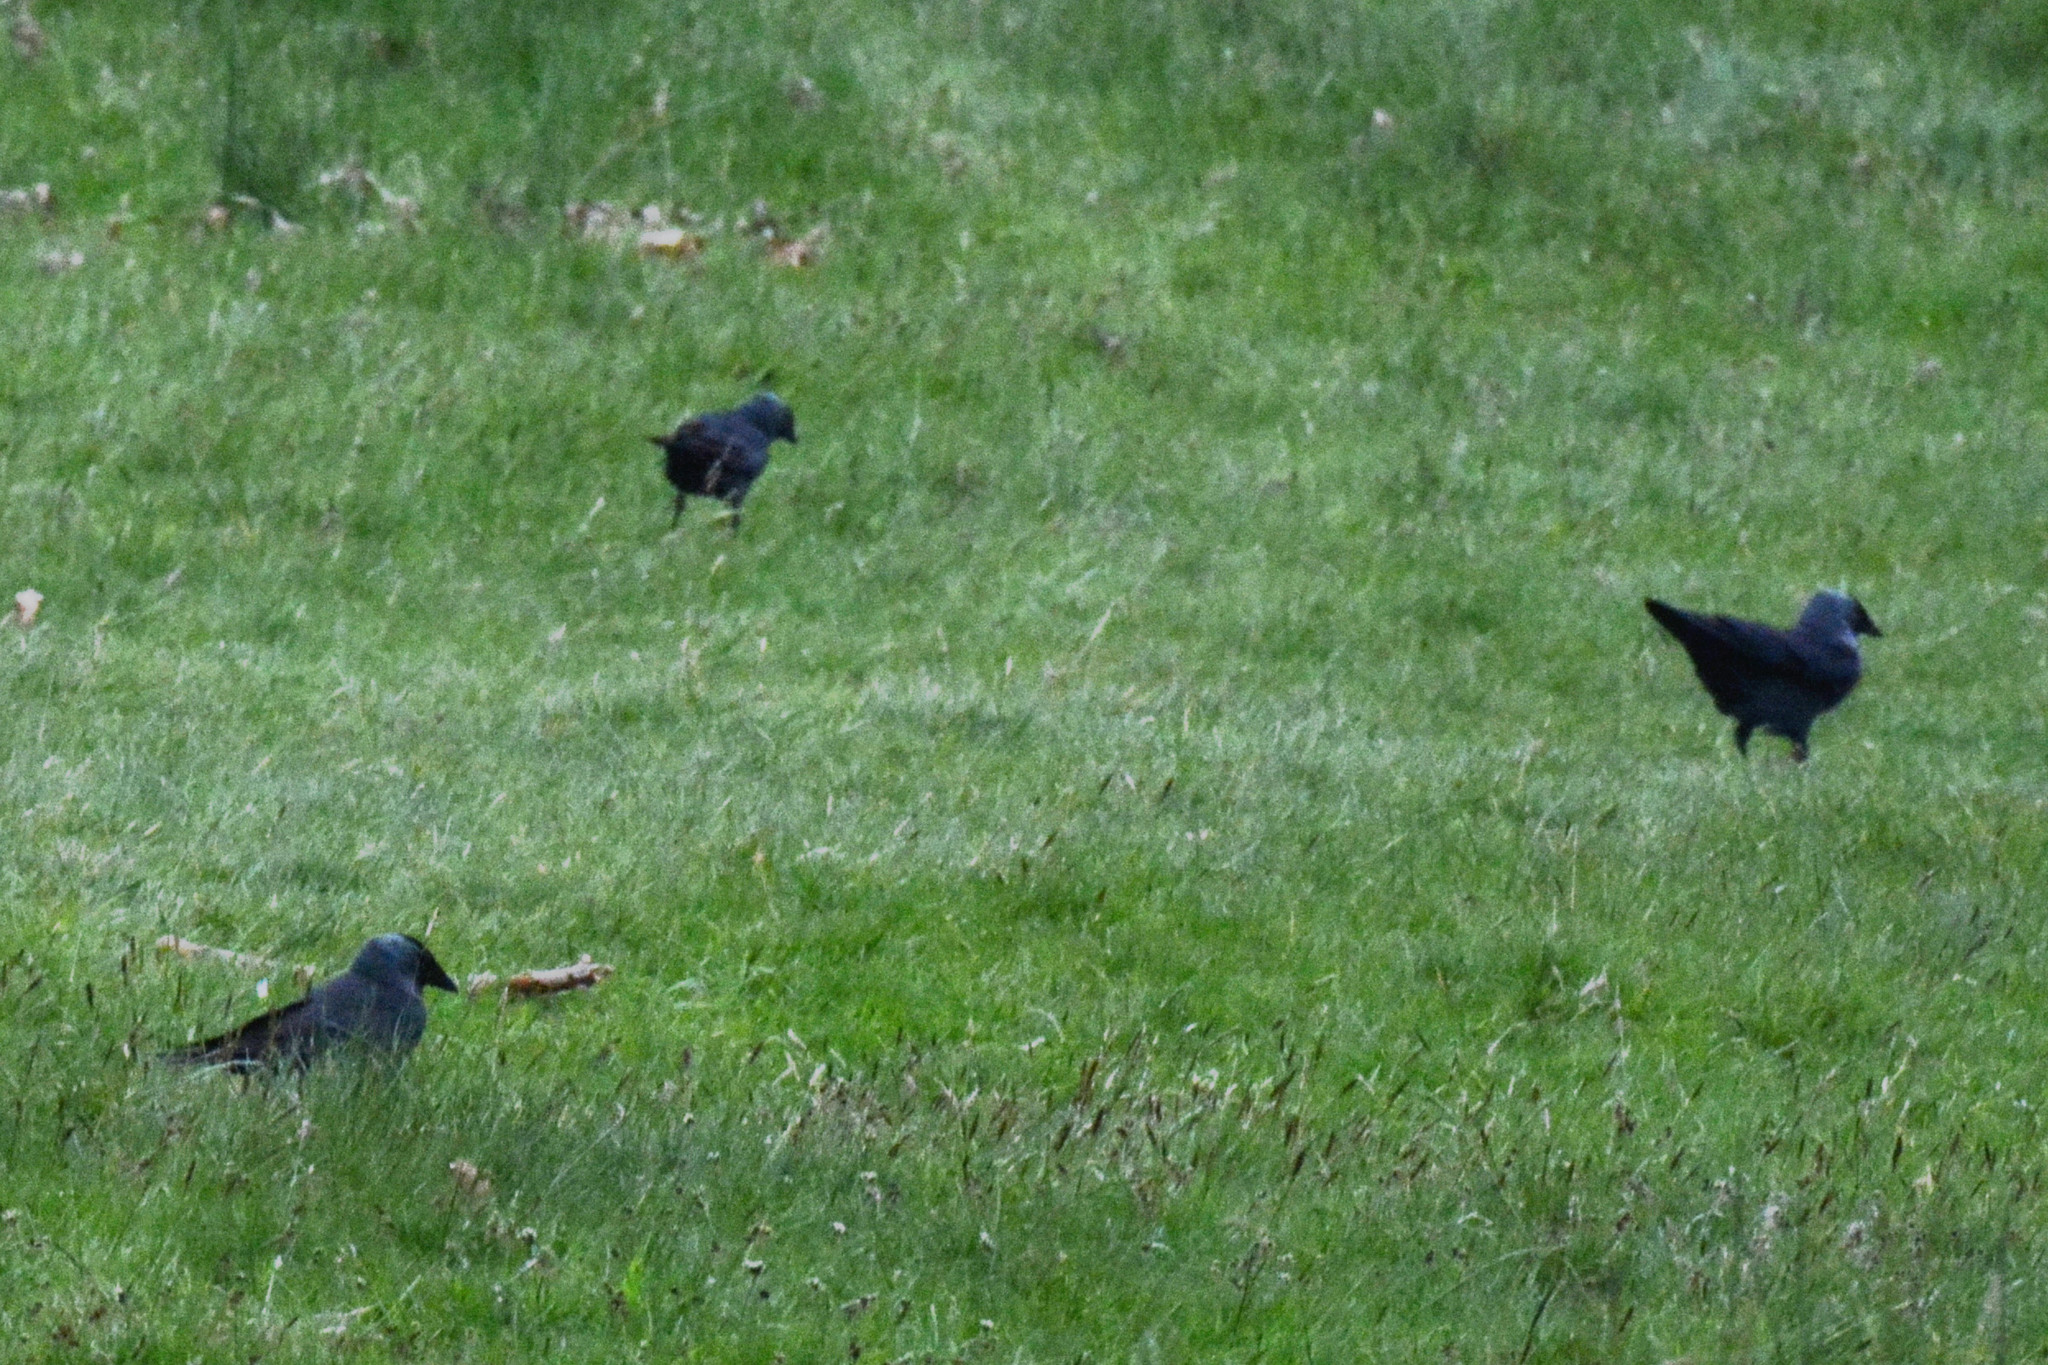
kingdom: Animalia
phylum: Chordata
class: Aves
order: Passeriformes
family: Corvidae
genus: Coloeus
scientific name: Coloeus monedula
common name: Western jackdaw
